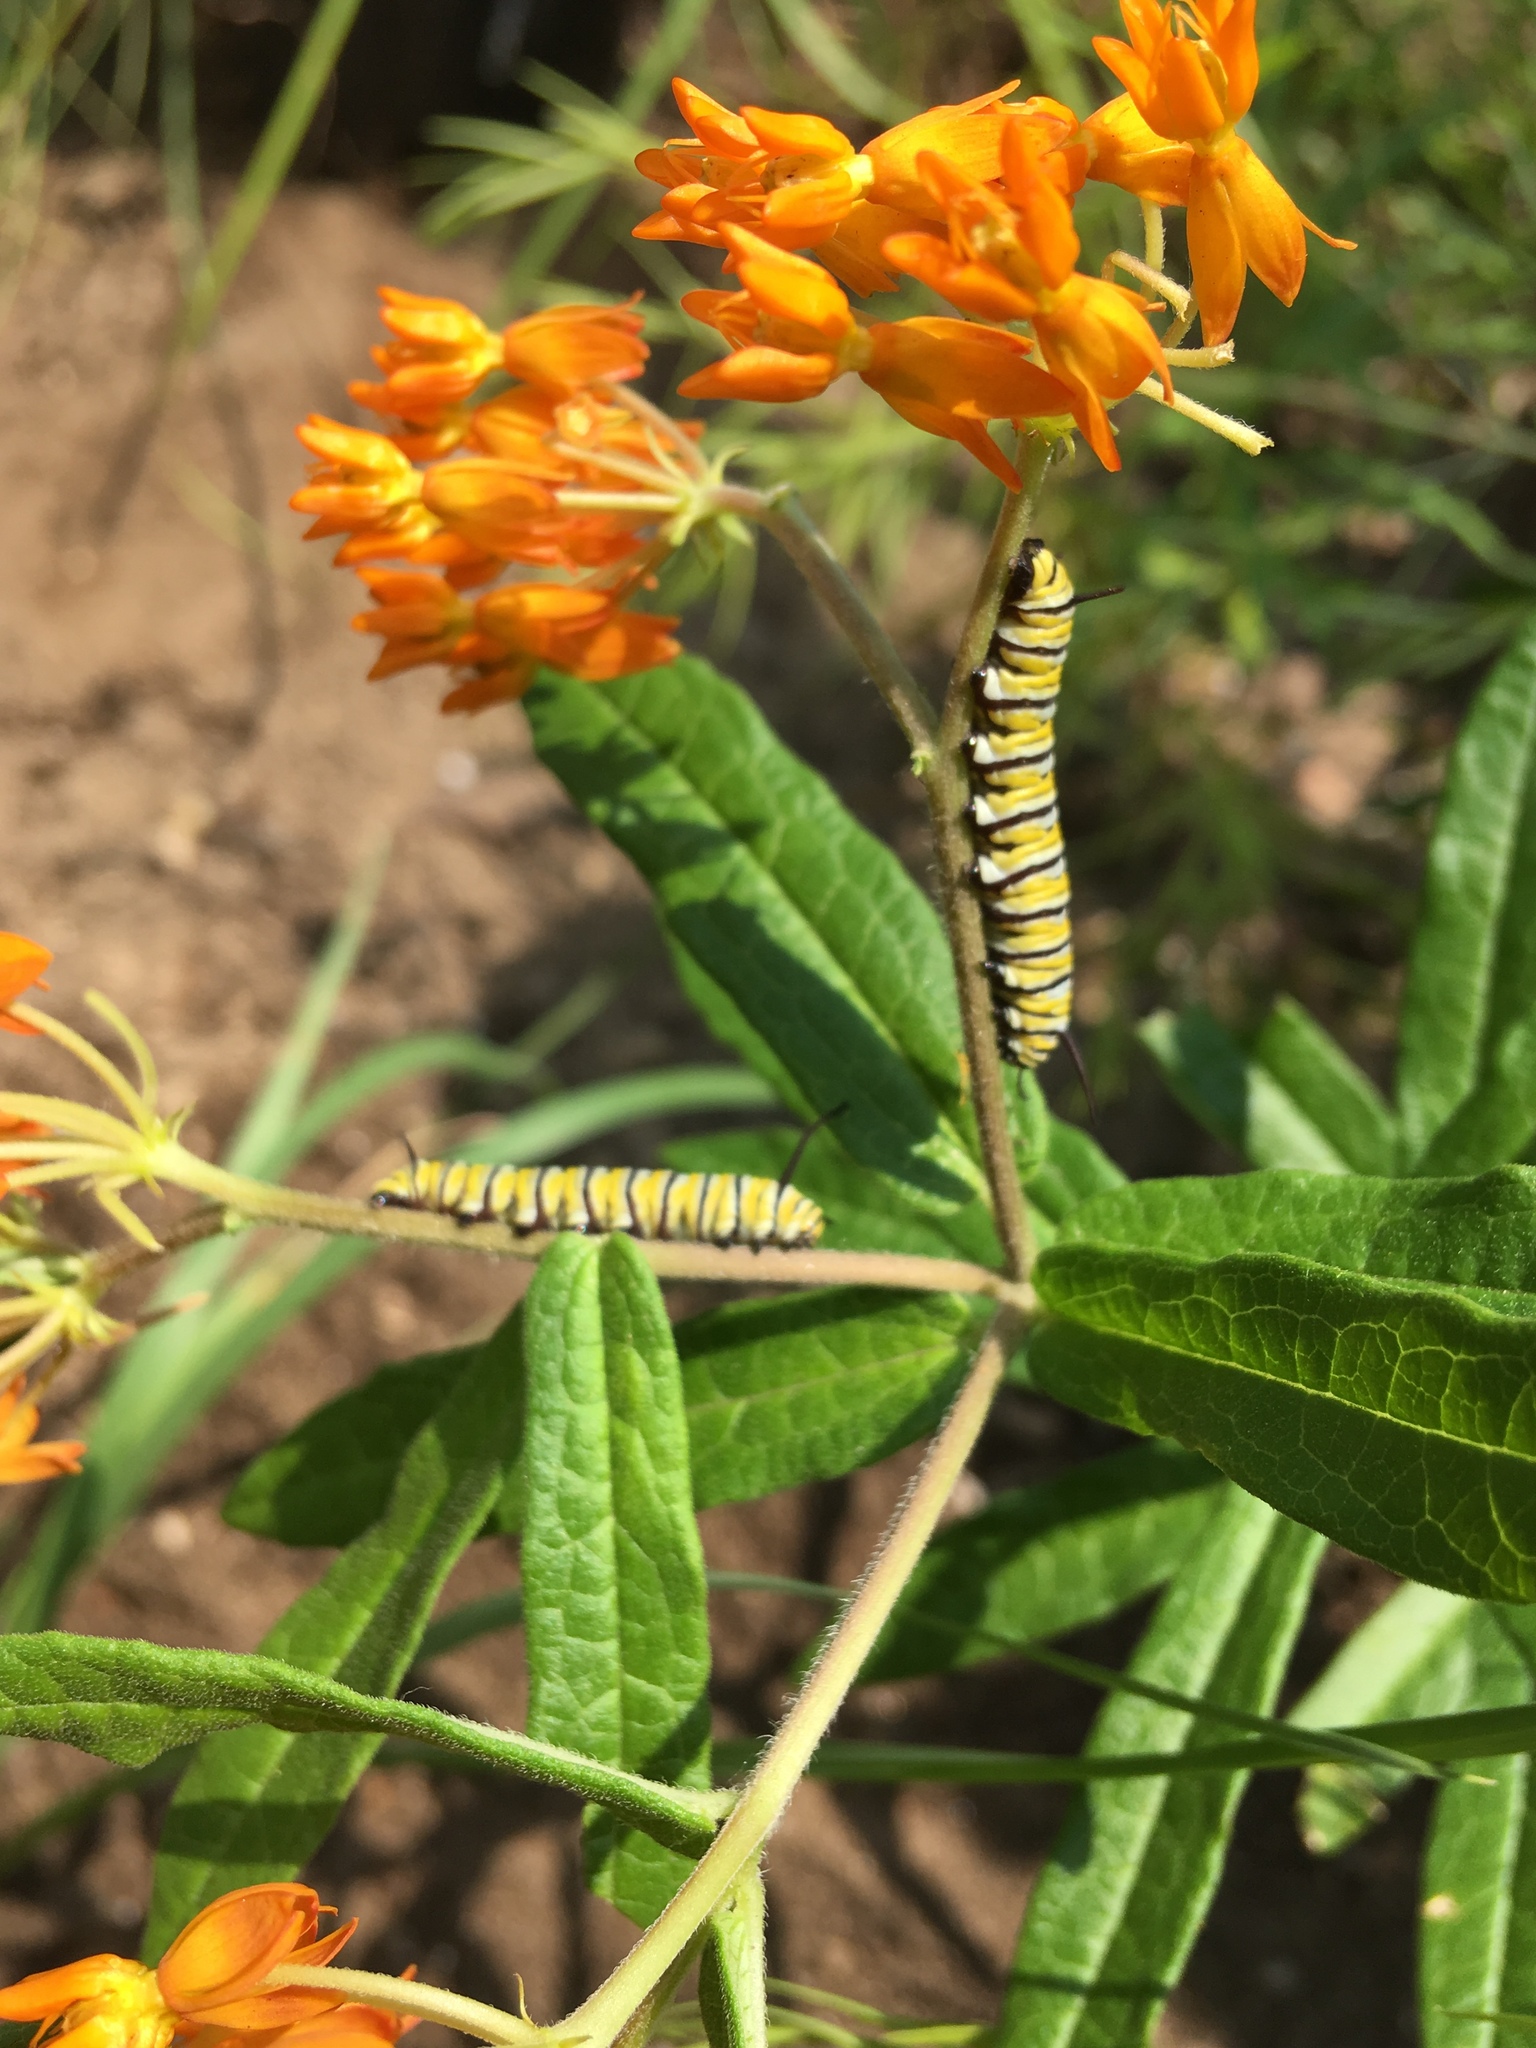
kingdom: Animalia
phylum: Arthropoda
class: Insecta
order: Lepidoptera
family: Nymphalidae
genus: Danaus
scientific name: Danaus plexippus
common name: Monarch
